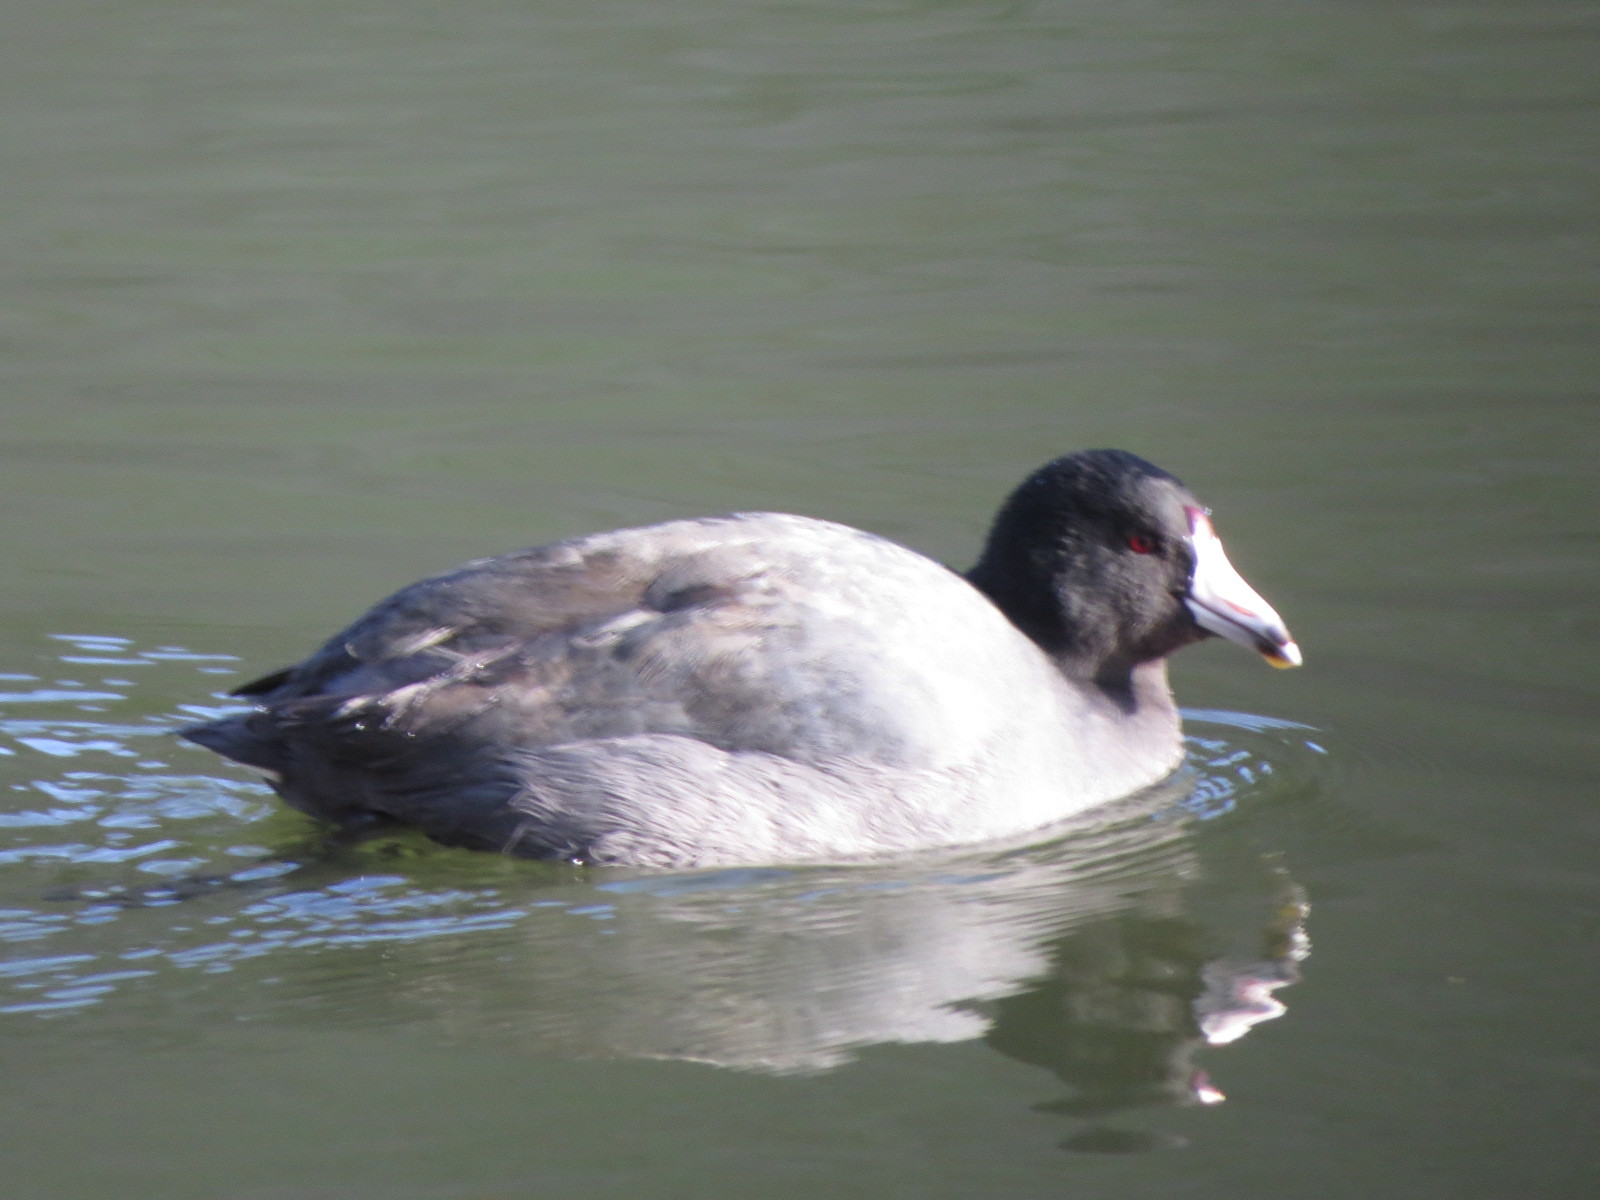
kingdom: Animalia
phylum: Chordata
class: Aves
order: Gruiformes
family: Rallidae
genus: Fulica
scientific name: Fulica americana
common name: American coot
